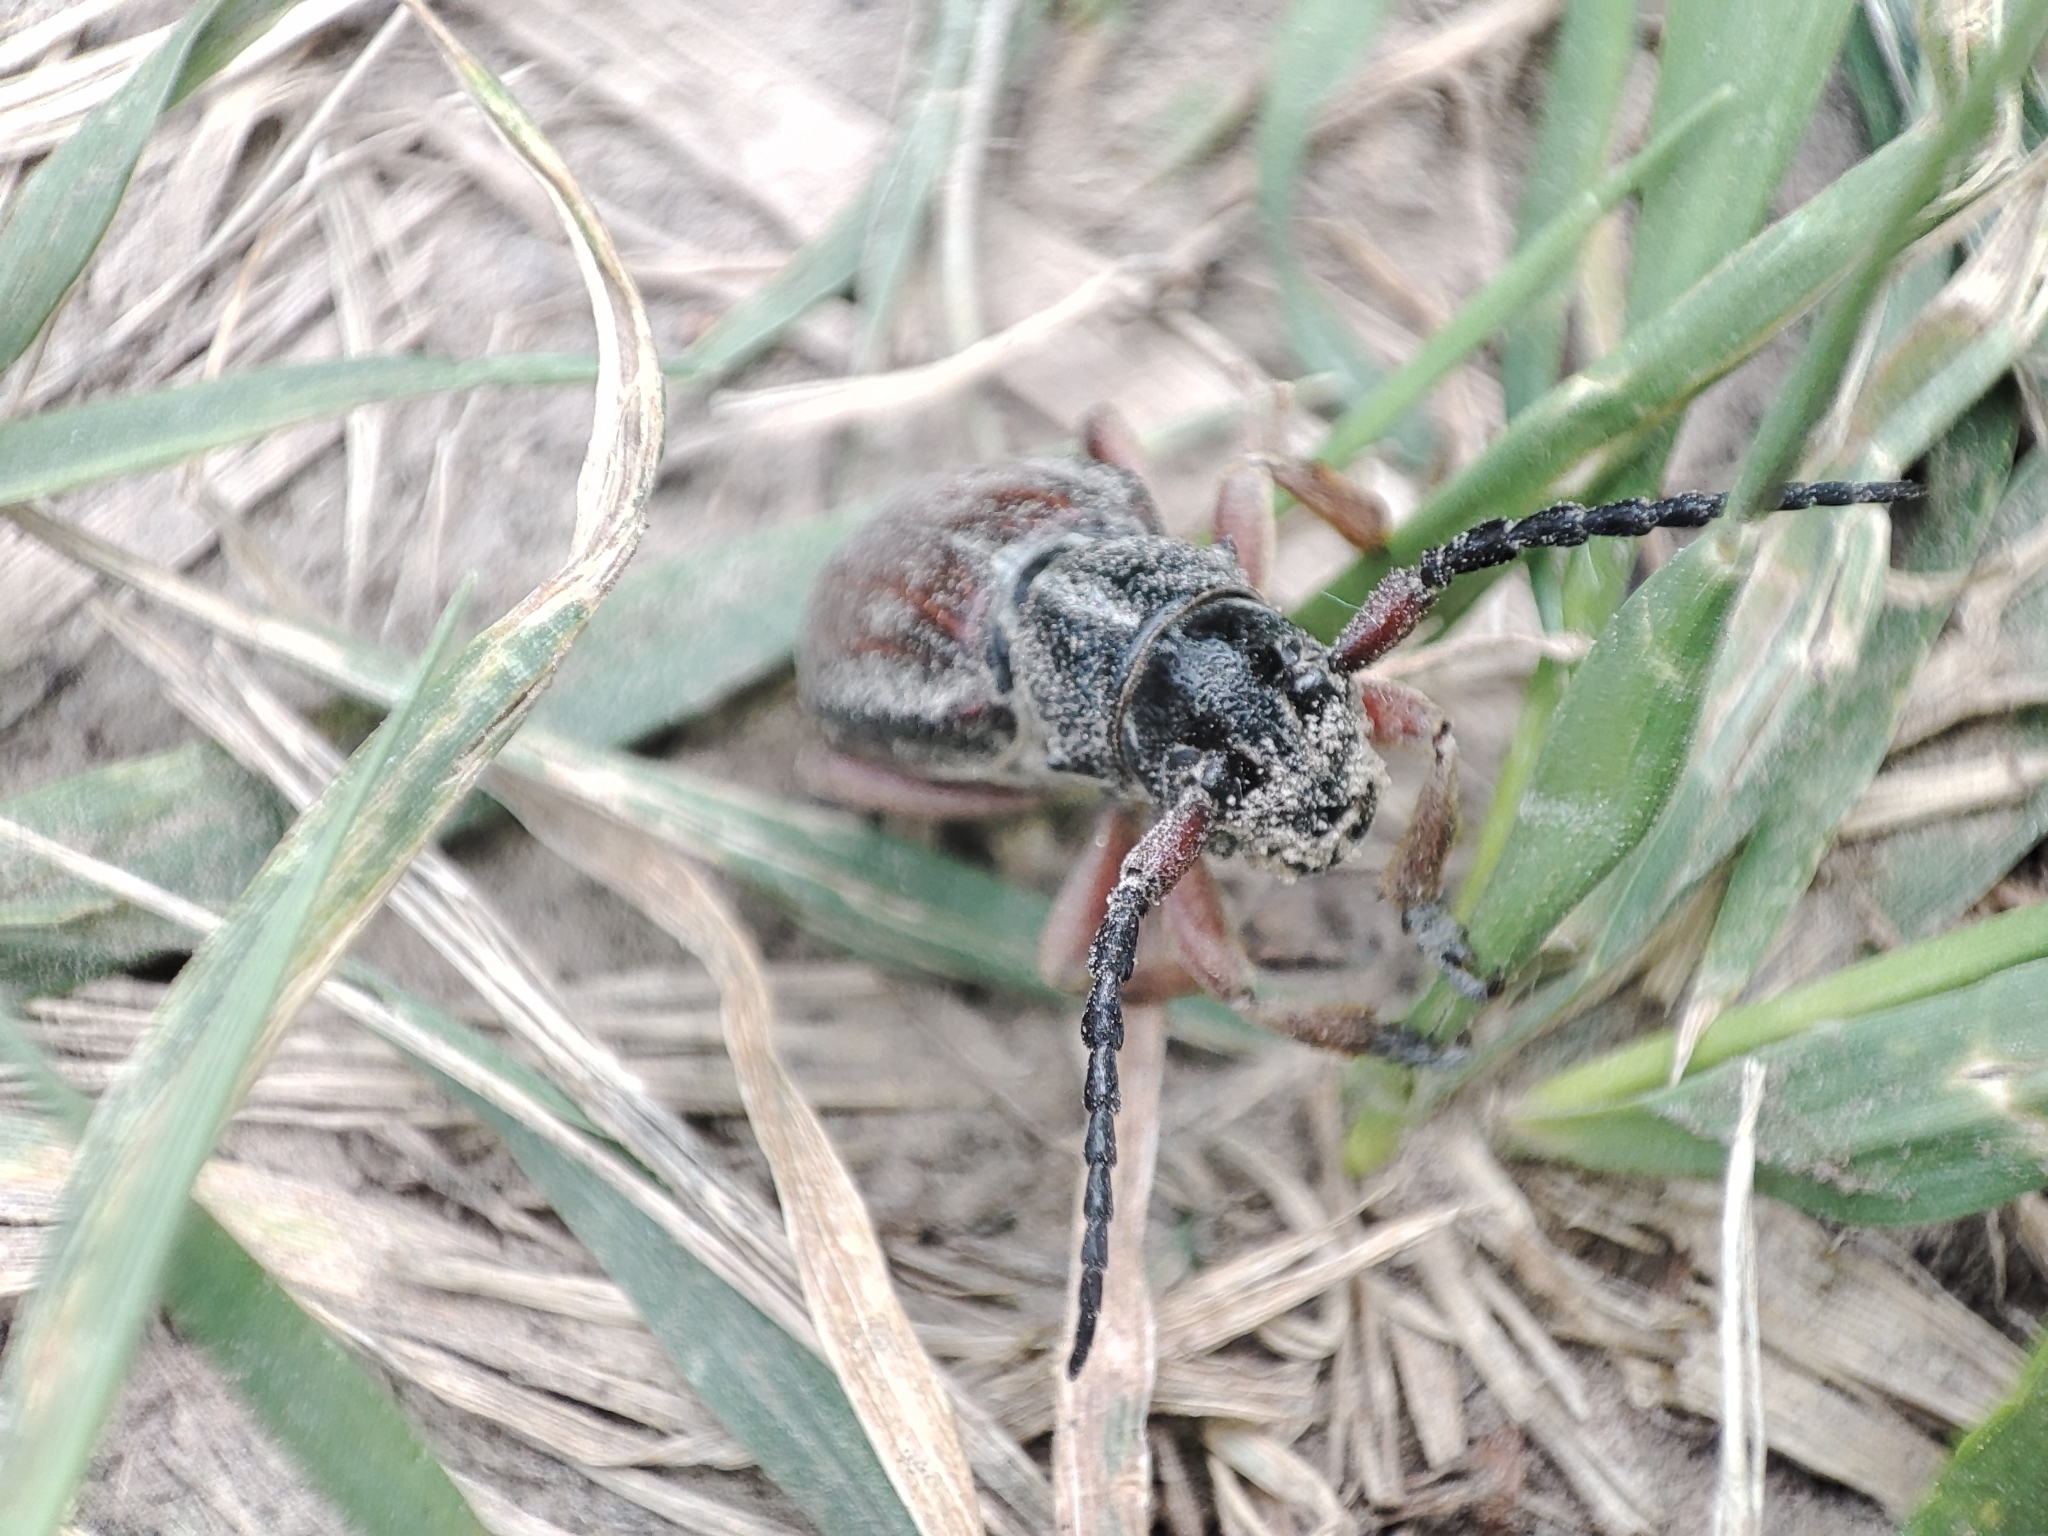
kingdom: Animalia
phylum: Arthropoda
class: Insecta
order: Coleoptera
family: Cerambycidae
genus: Dorcadion
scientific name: Dorcadion fulvum
